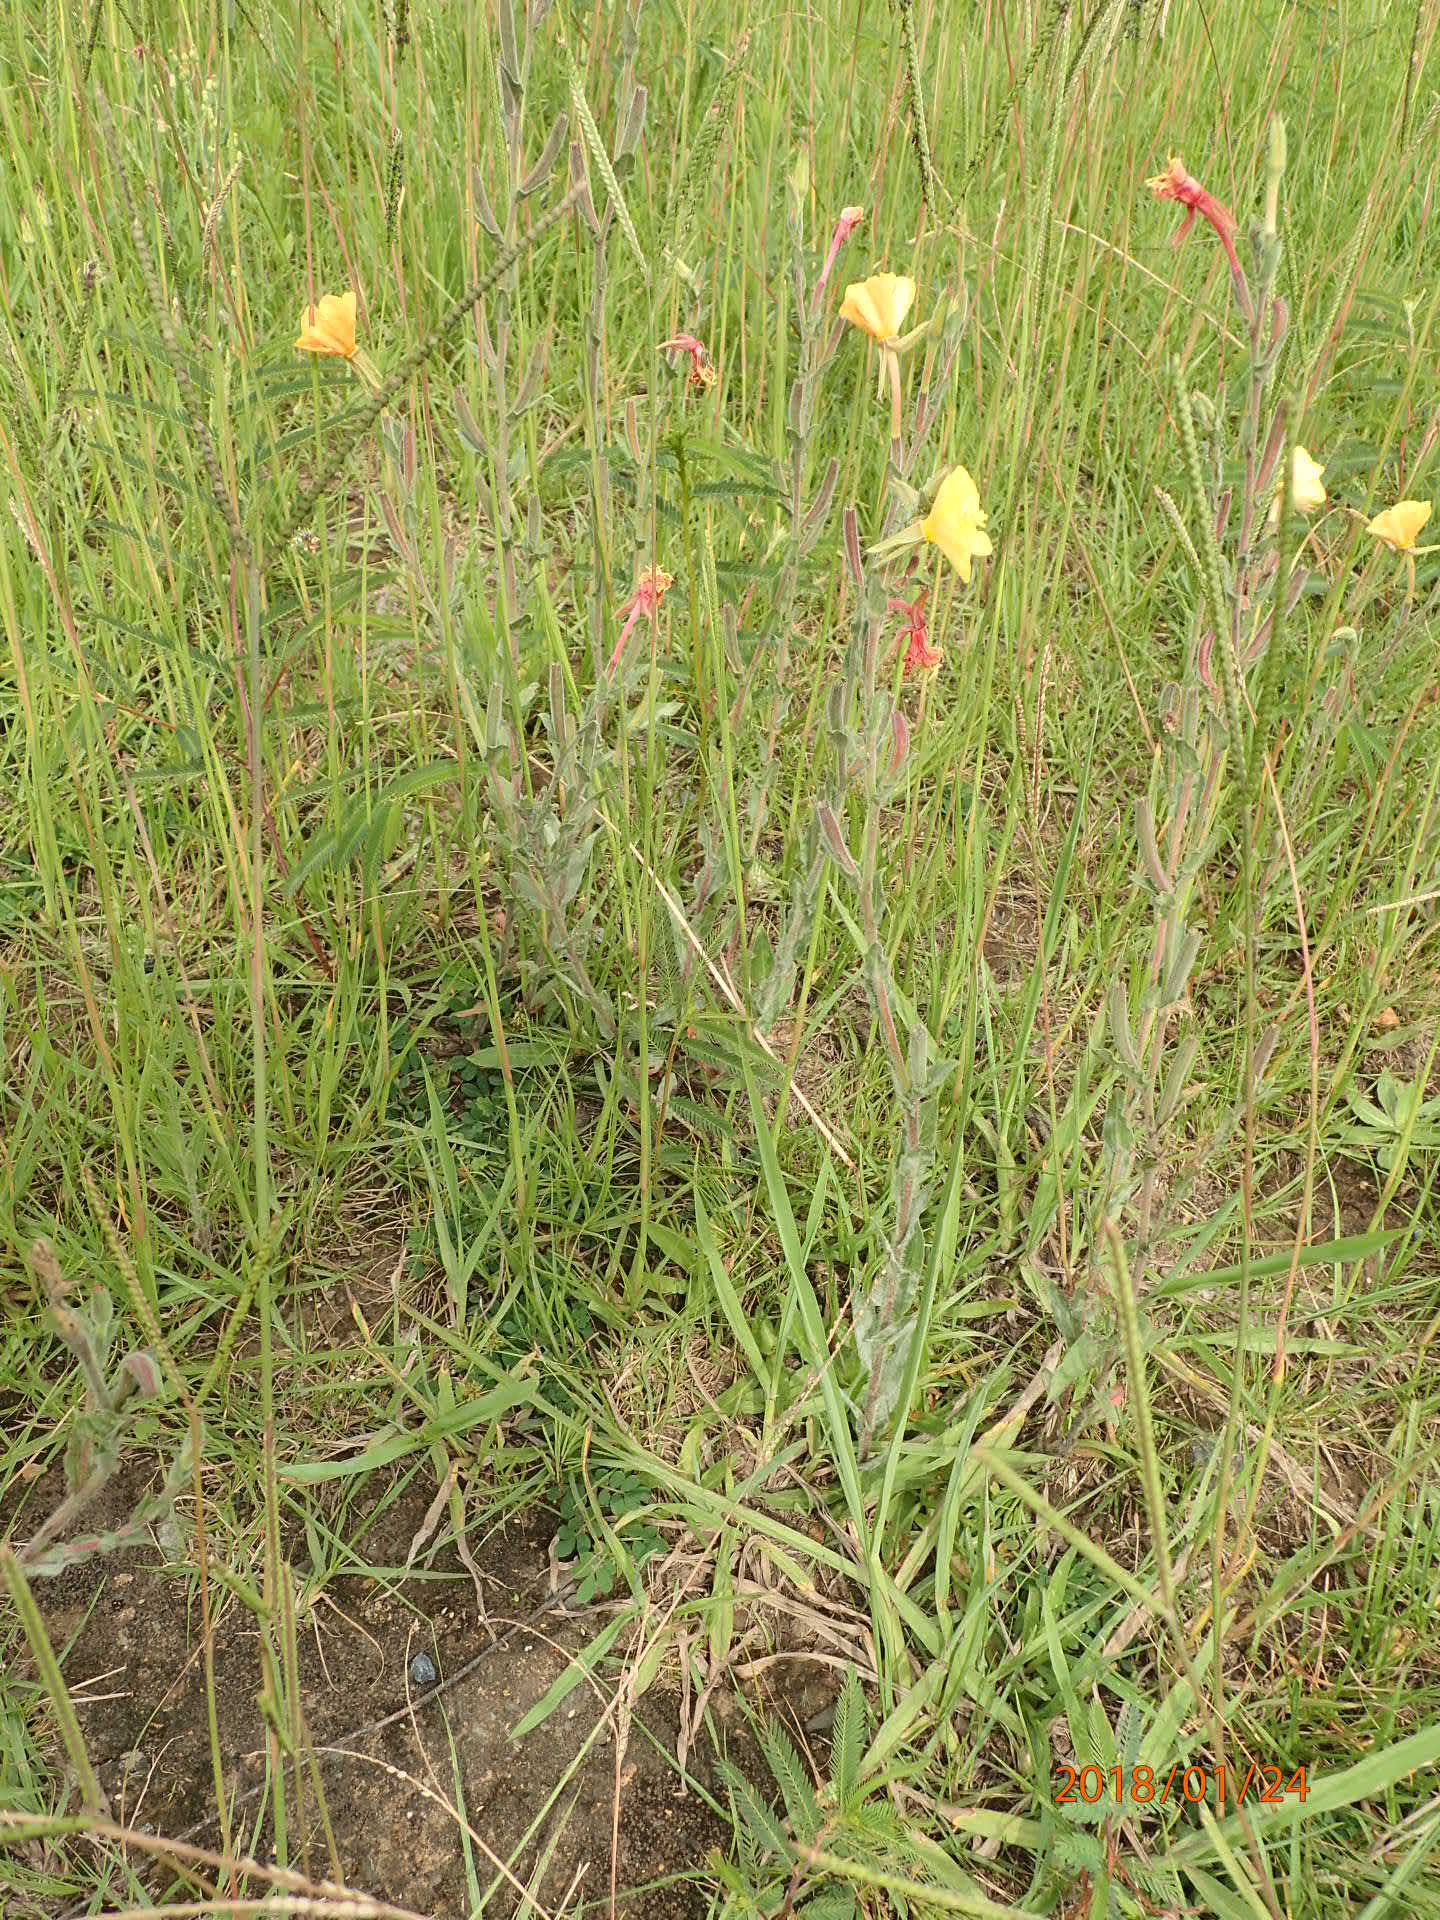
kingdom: Plantae
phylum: Tracheophyta
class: Magnoliopsida
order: Myrtales
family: Onagraceae
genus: Oenothera
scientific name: Oenothera stricta
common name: Fragrant evening-primrose
